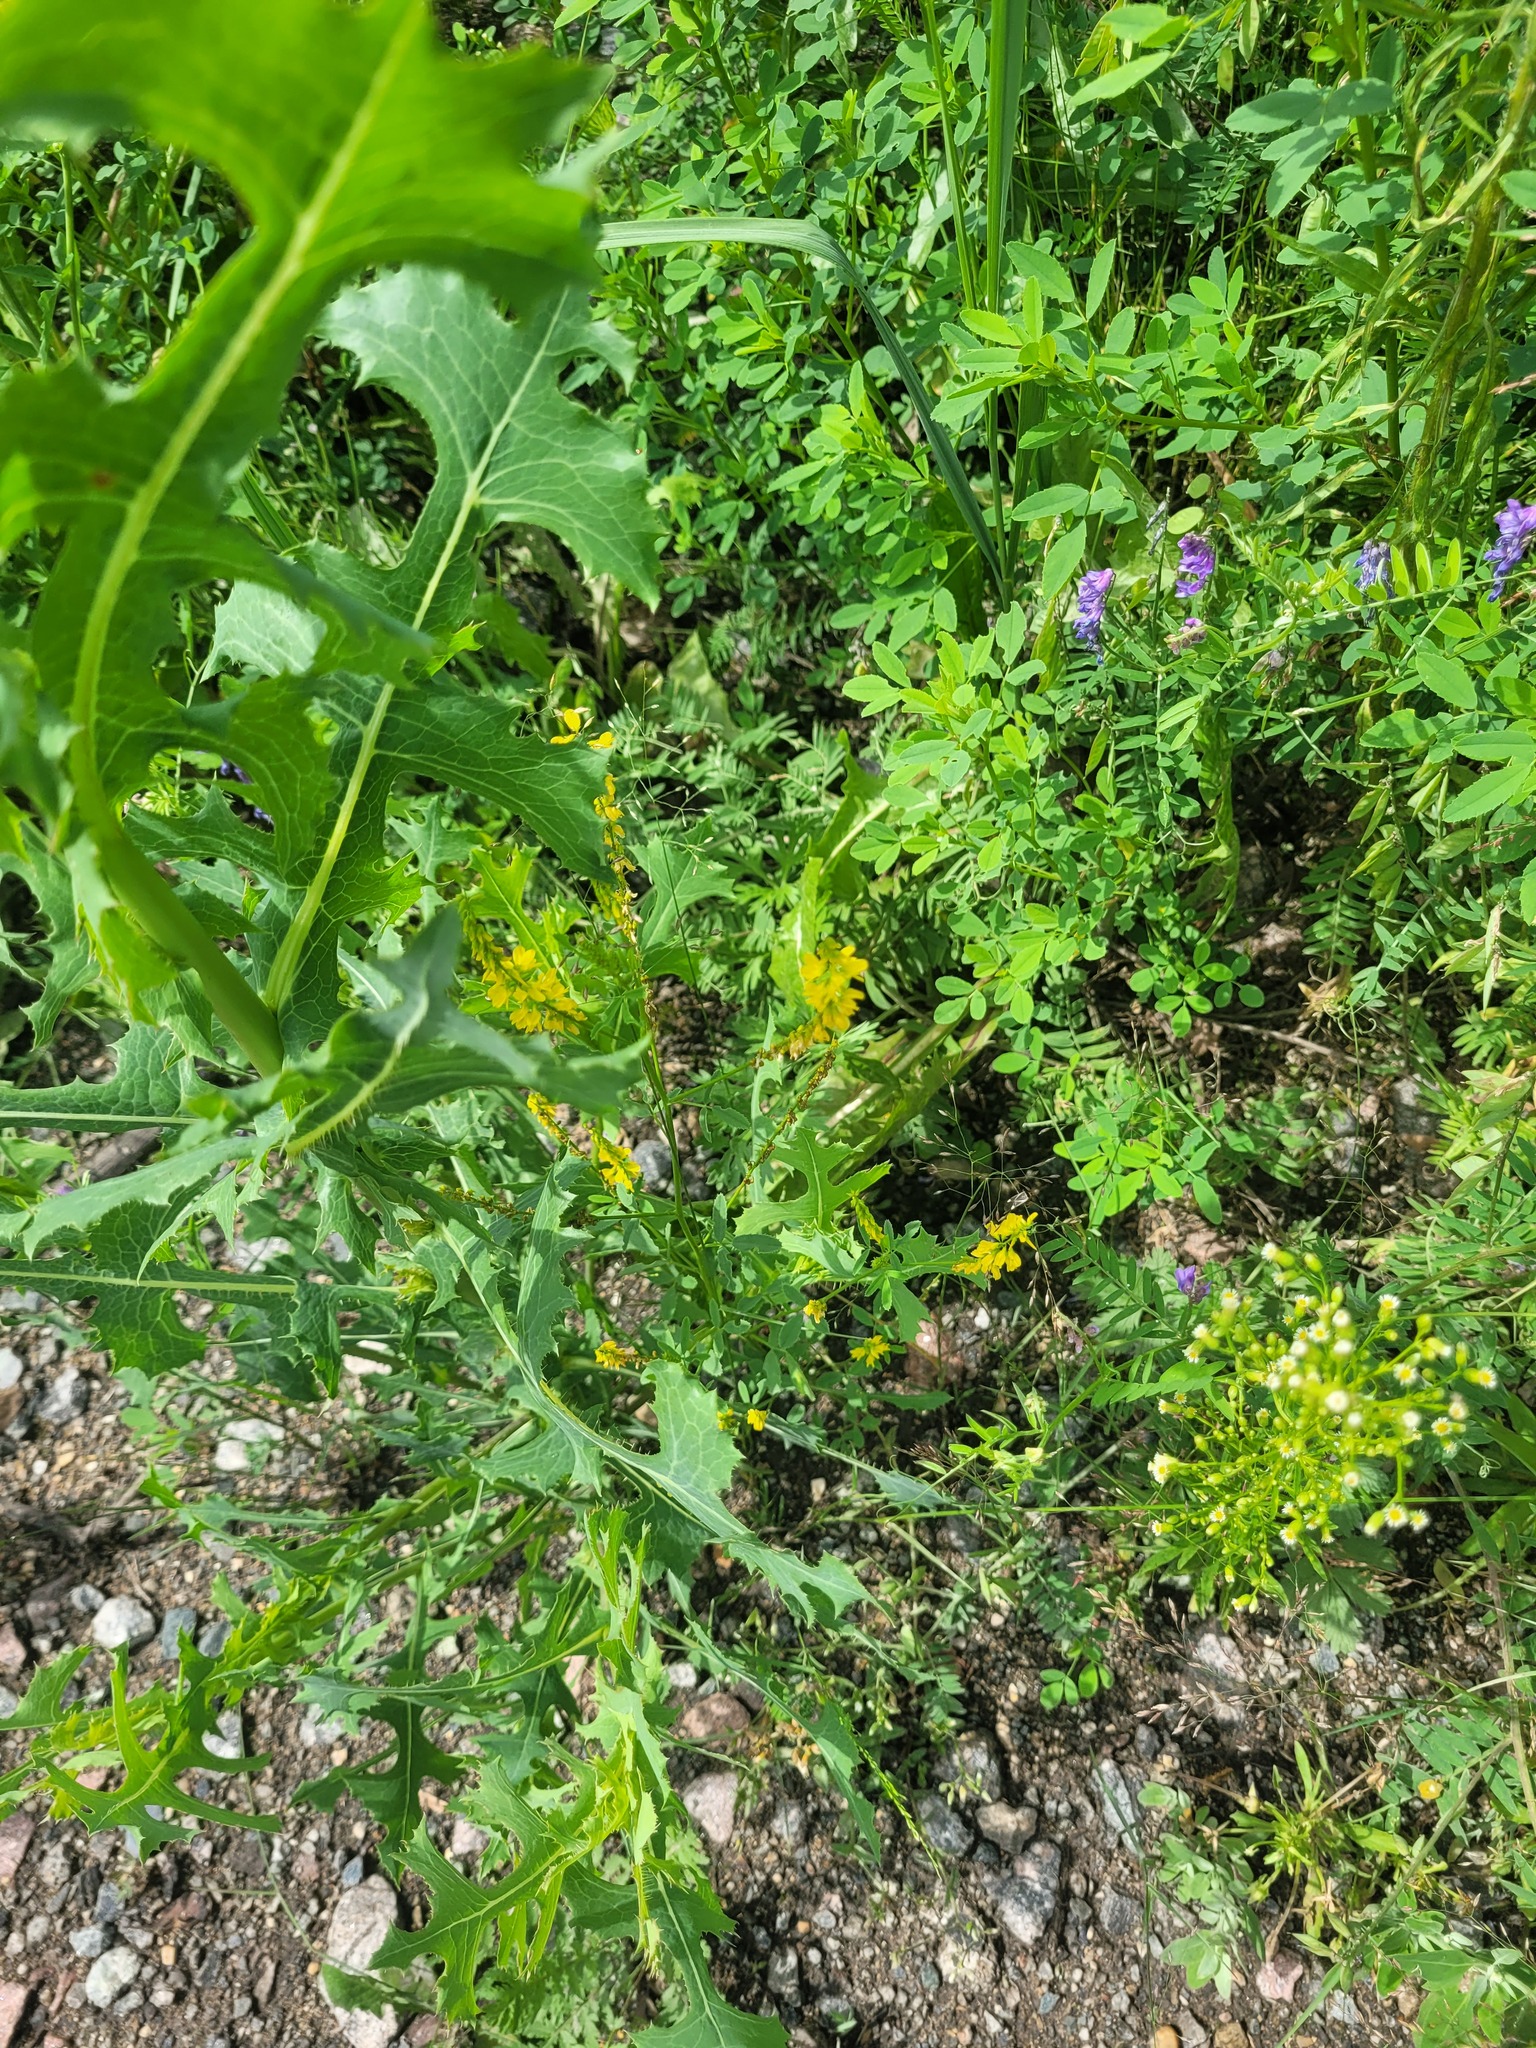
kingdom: Plantae
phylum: Tracheophyta
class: Magnoliopsida
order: Fabales
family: Fabaceae
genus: Melilotus
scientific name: Melilotus officinalis
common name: Sweetclover
